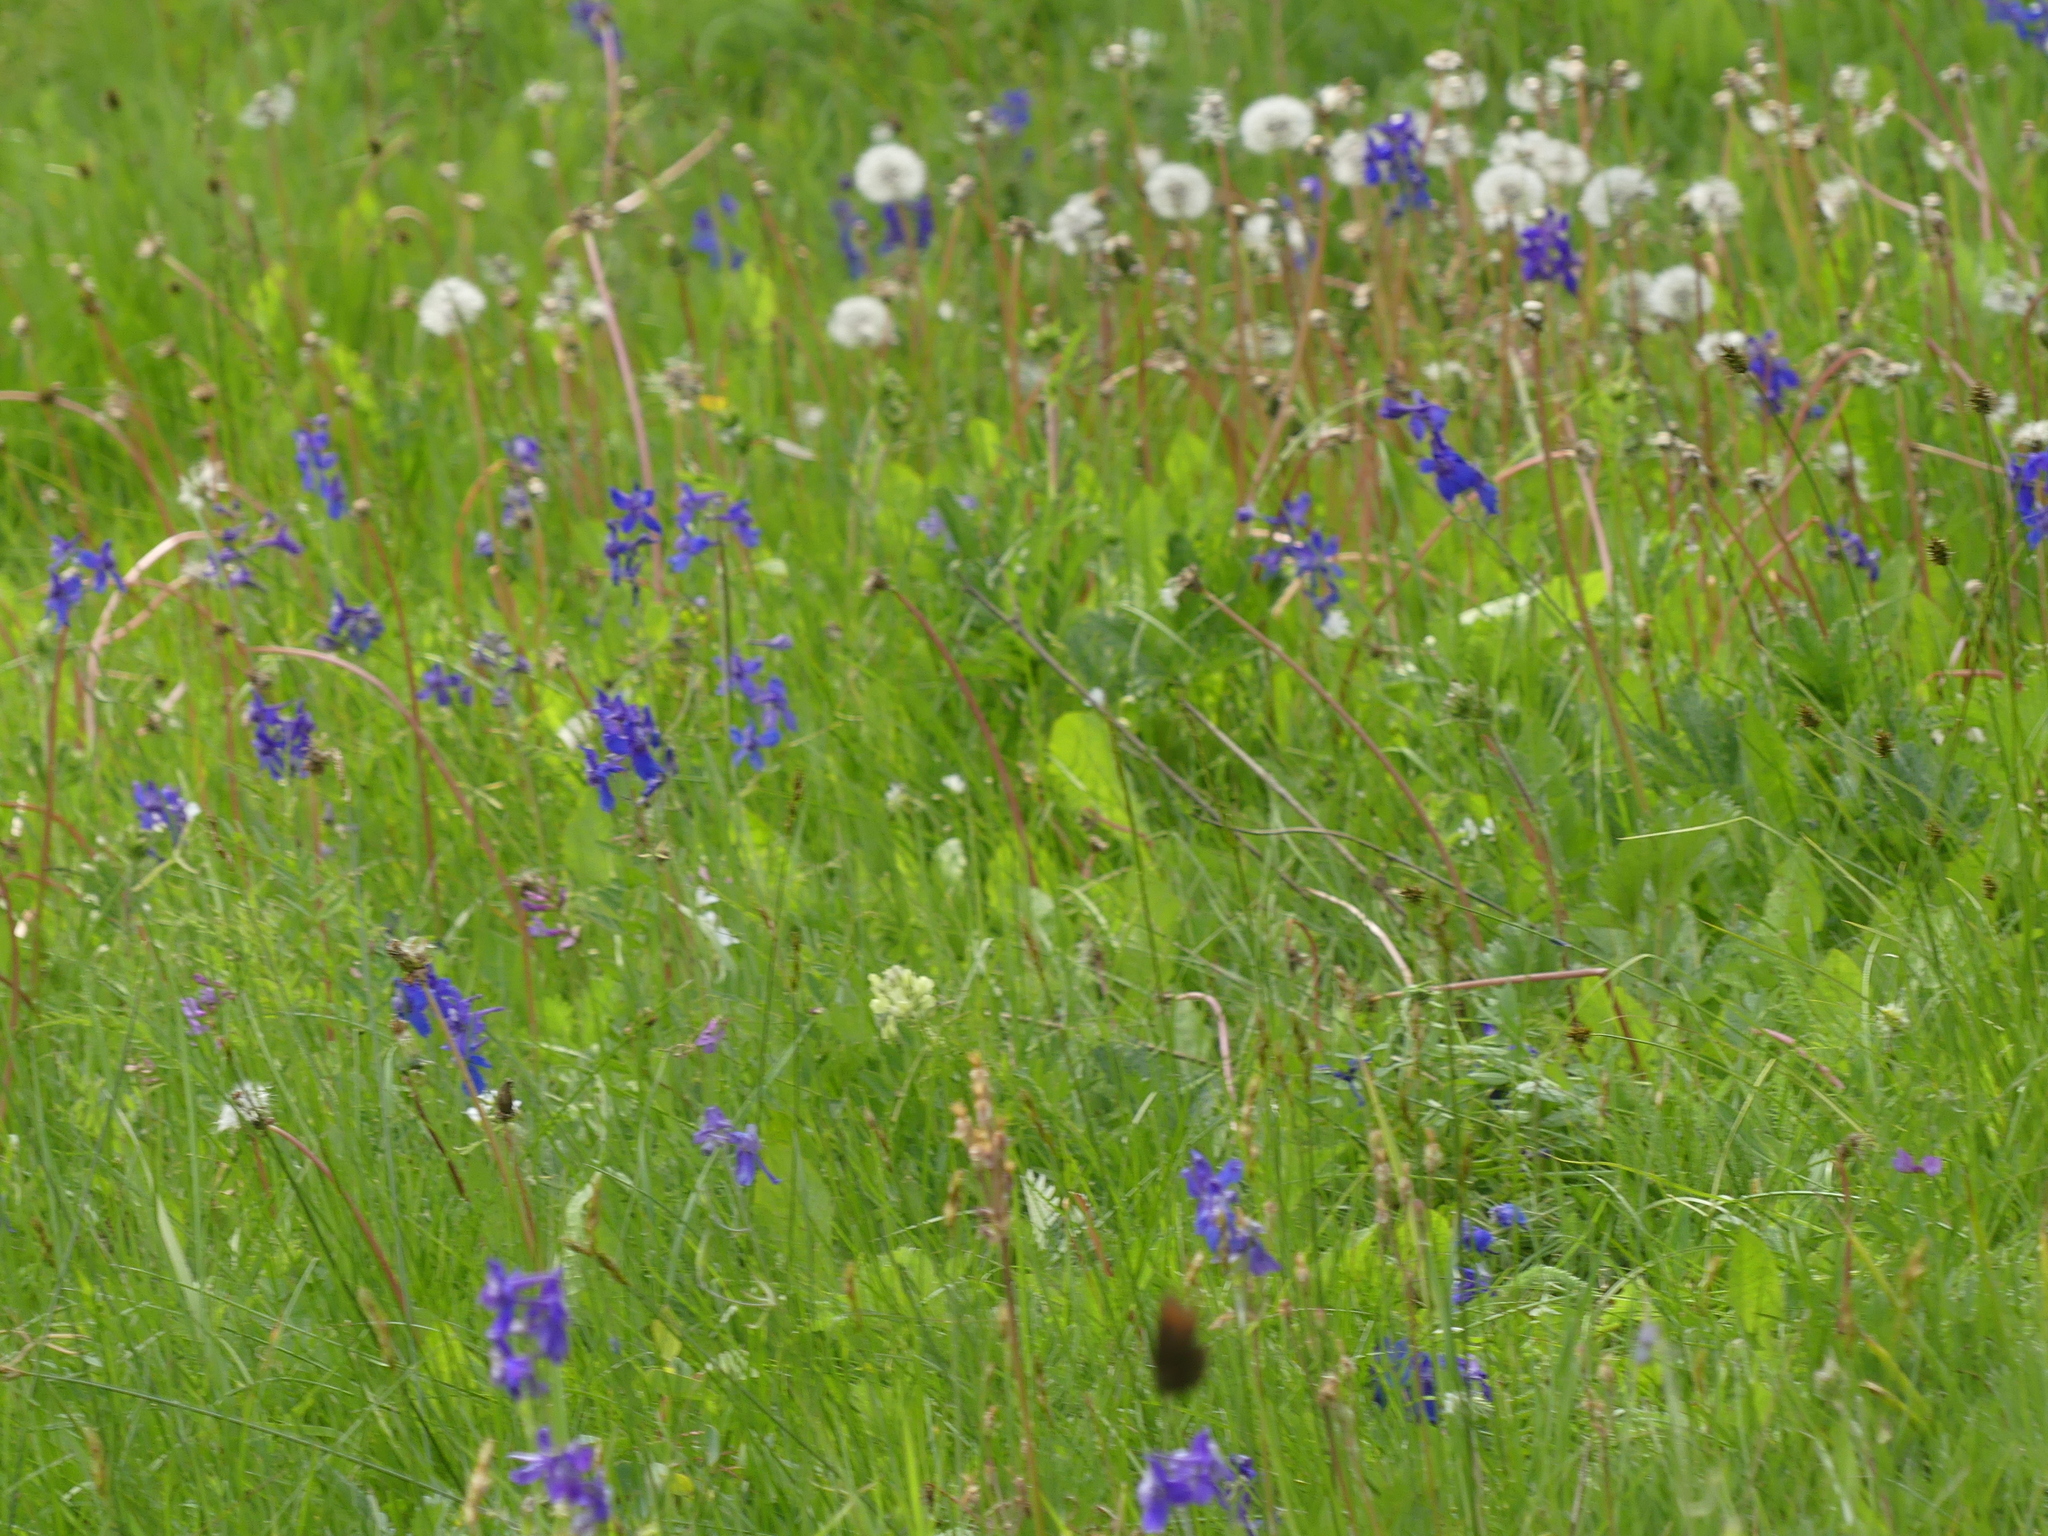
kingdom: Plantae
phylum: Tracheophyta
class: Magnoliopsida
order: Ranunculales
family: Ranunculaceae
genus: Delphinium
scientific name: Delphinium nuttallianum
